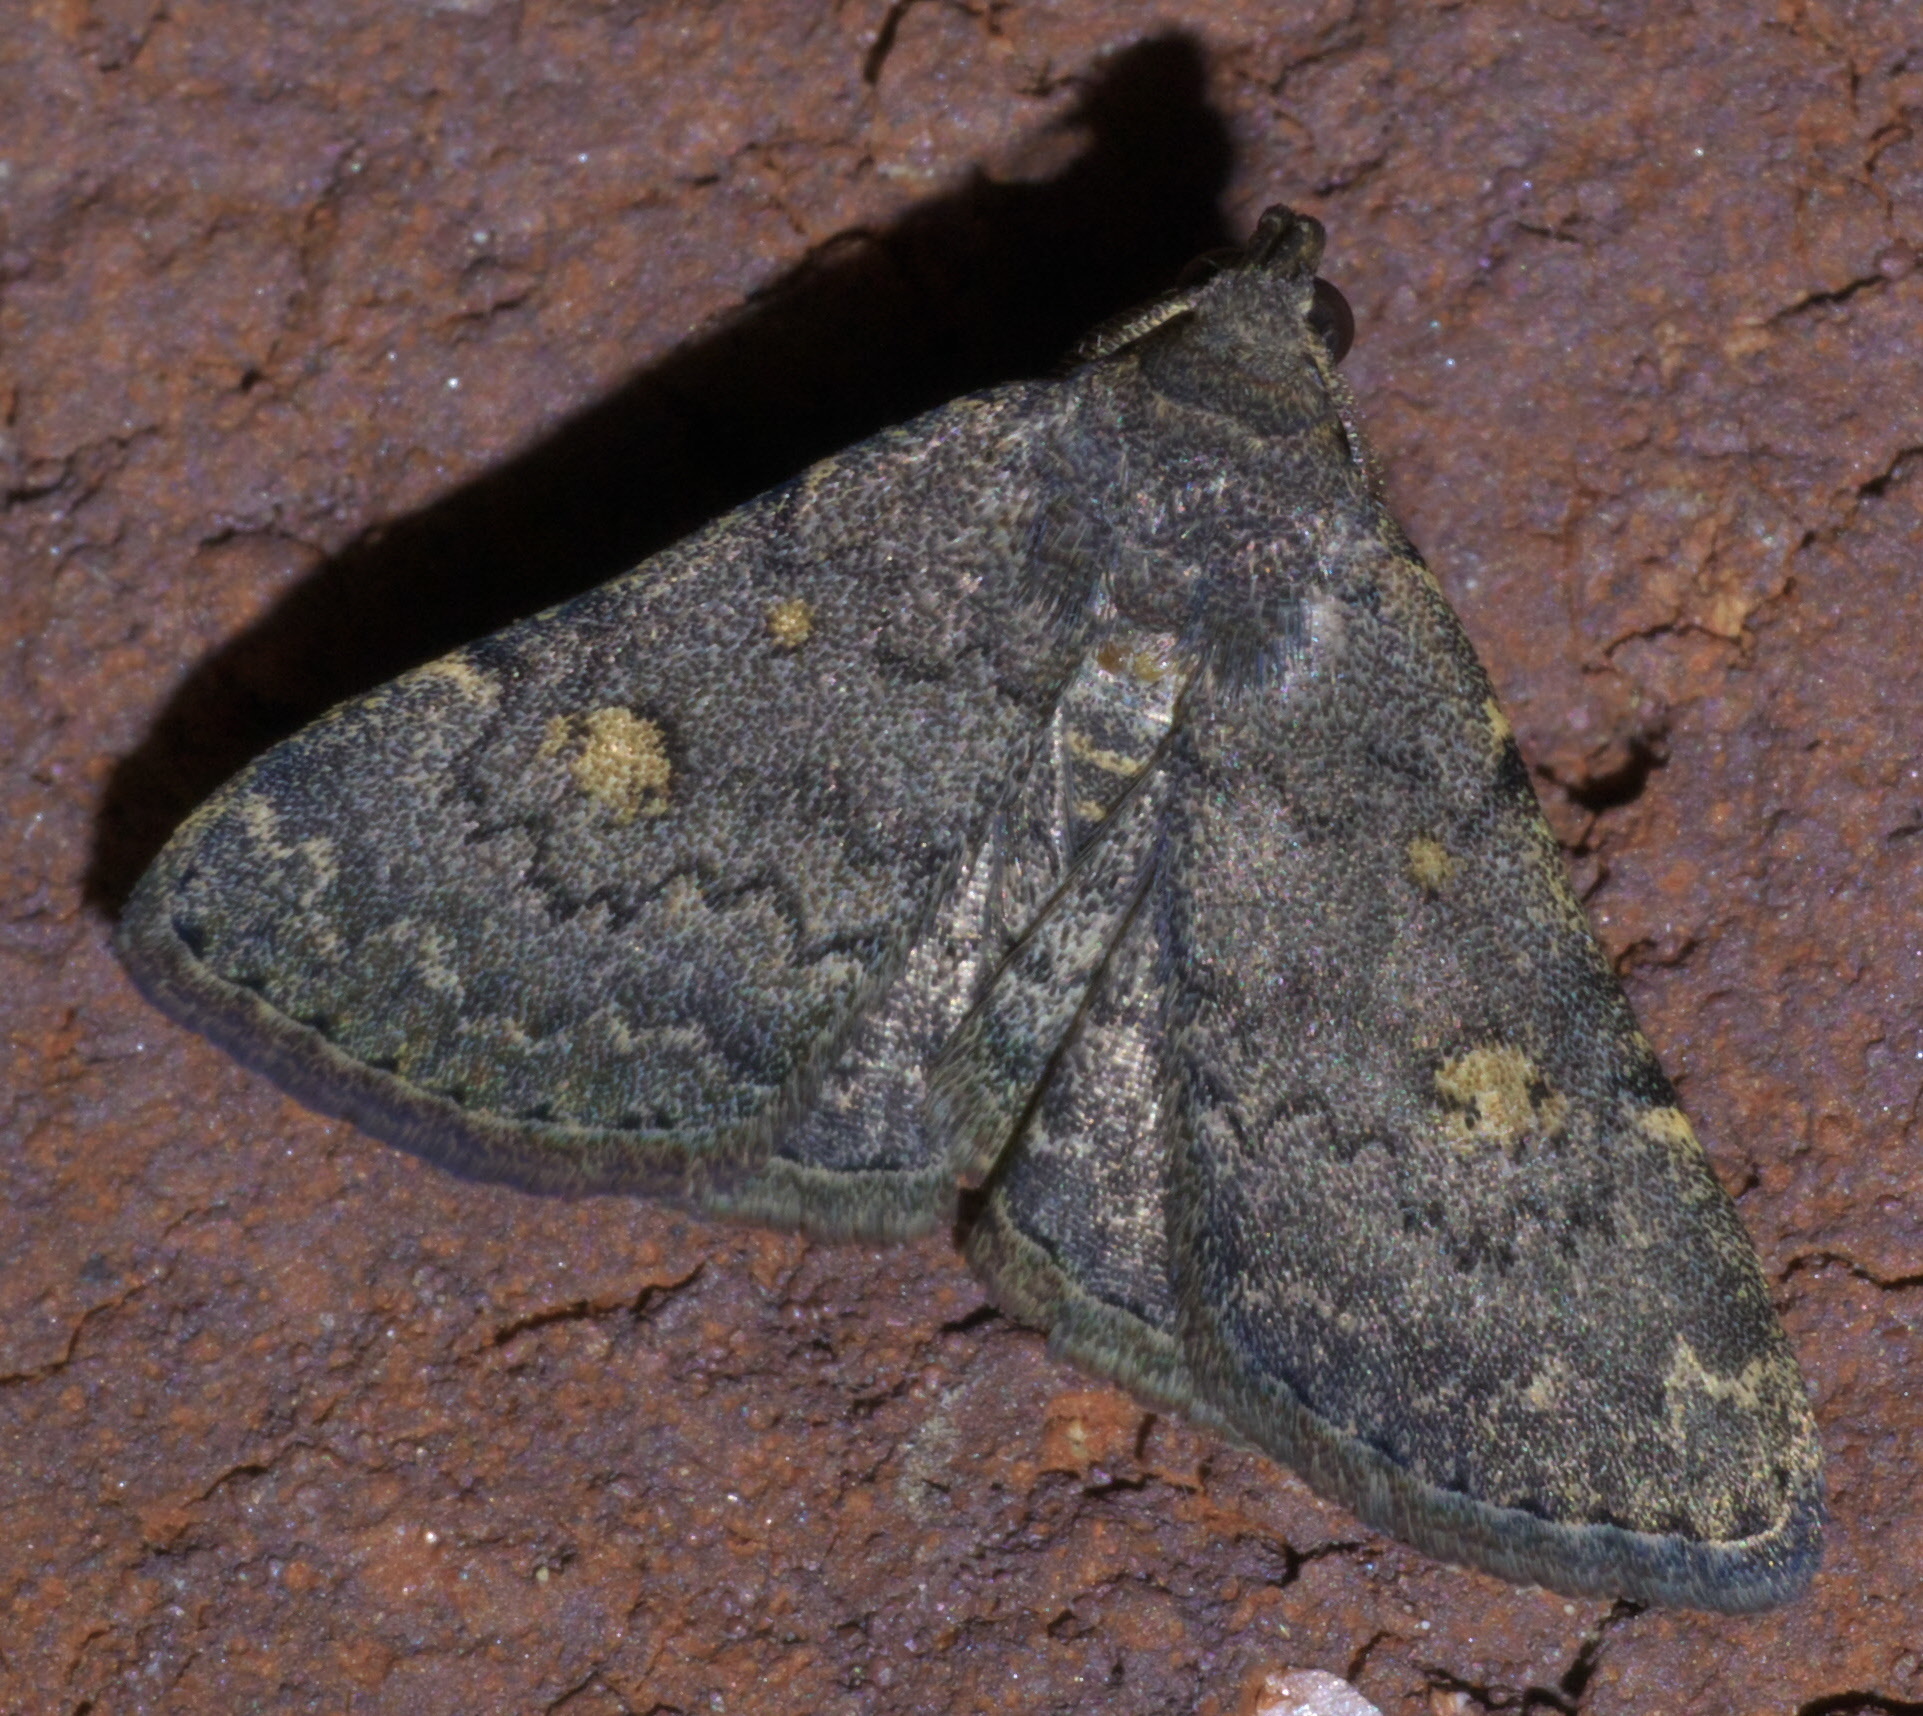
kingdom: Animalia
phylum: Arthropoda
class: Insecta
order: Lepidoptera
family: Erebidae
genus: Idia
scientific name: Idia aemula
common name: Common idia moth
